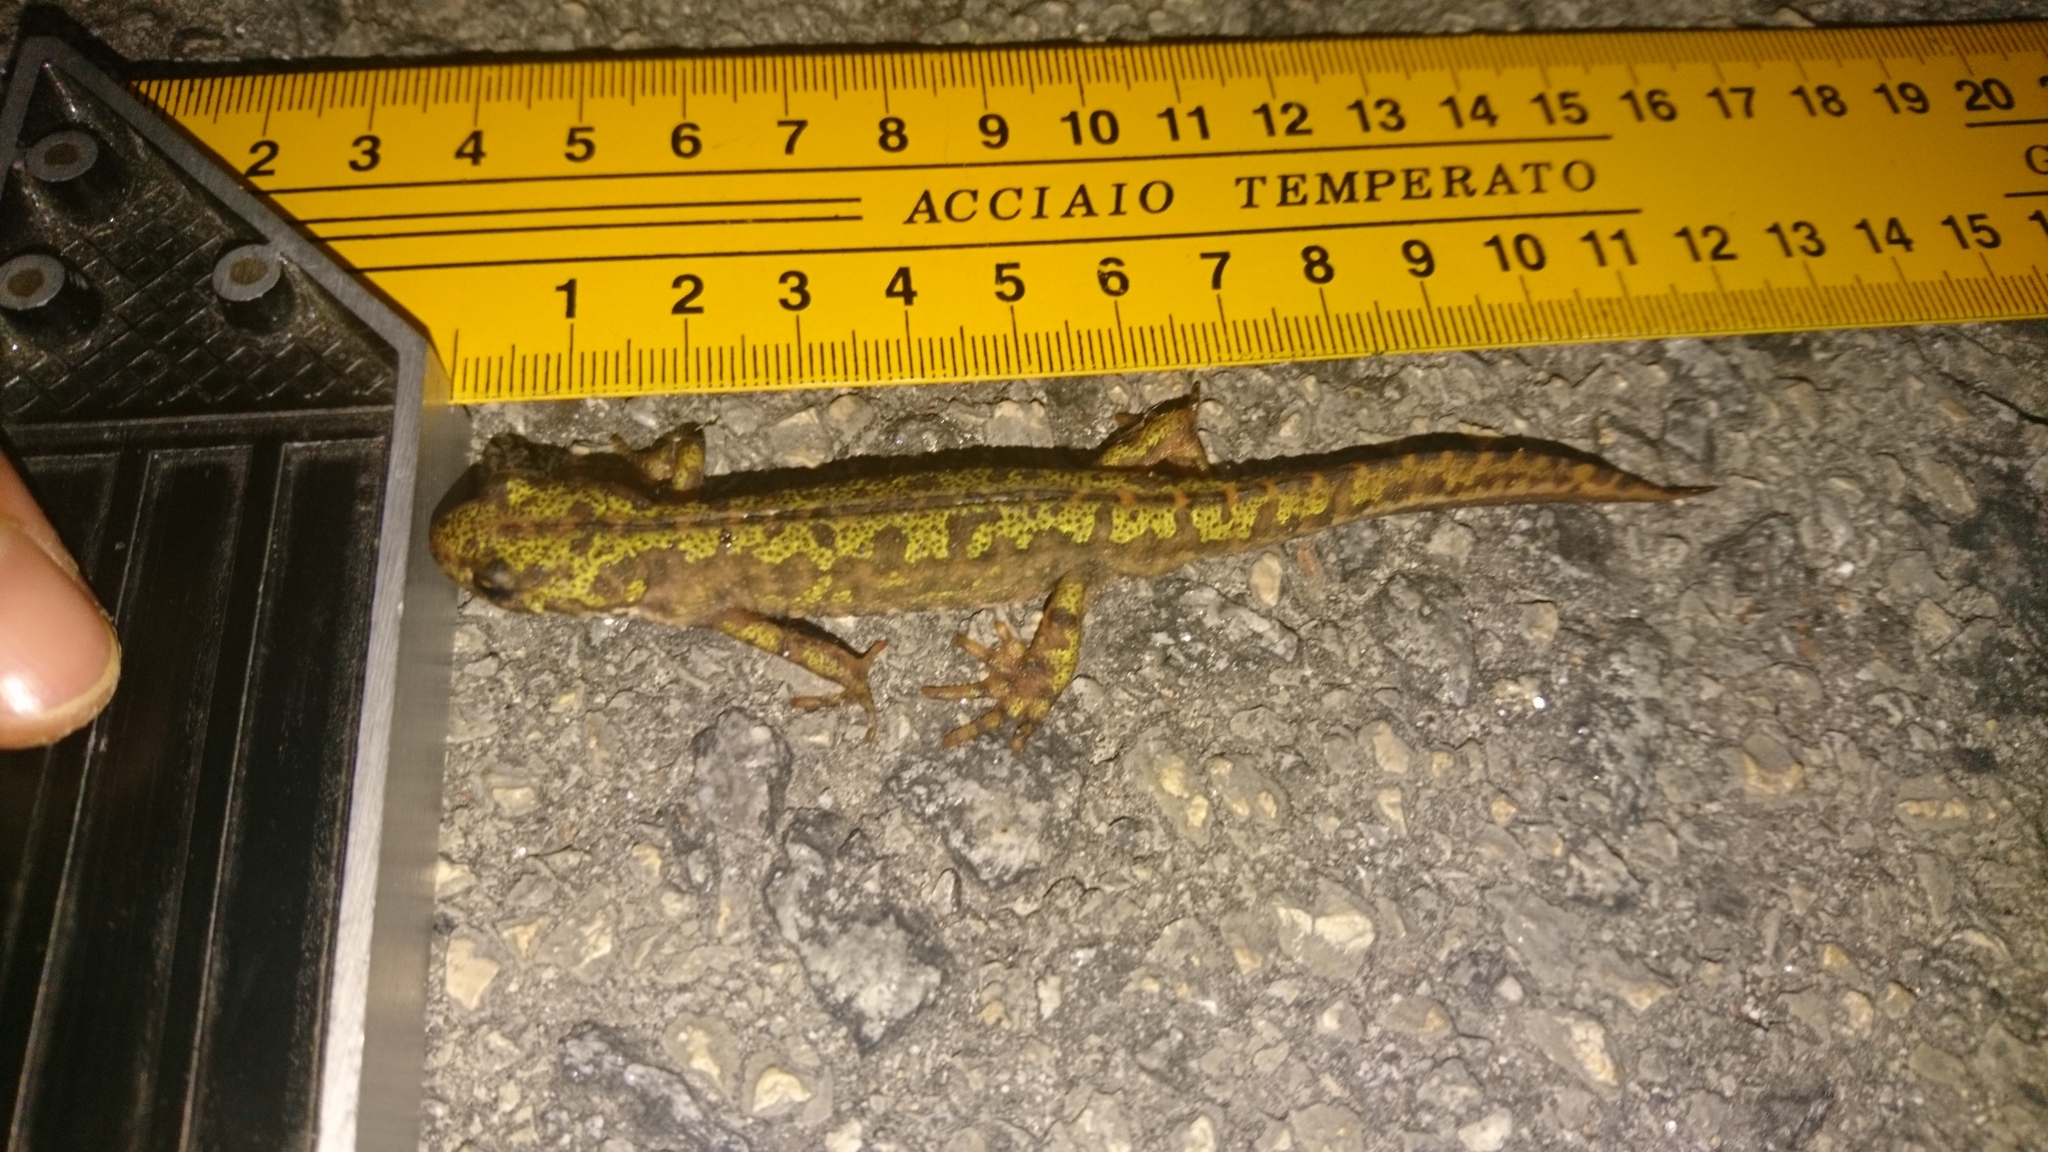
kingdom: Animalia
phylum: Chordata
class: Amphibia
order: Caudata
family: Salamandridae
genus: Triturus
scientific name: Triturus marmoratus
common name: Marbled newt
